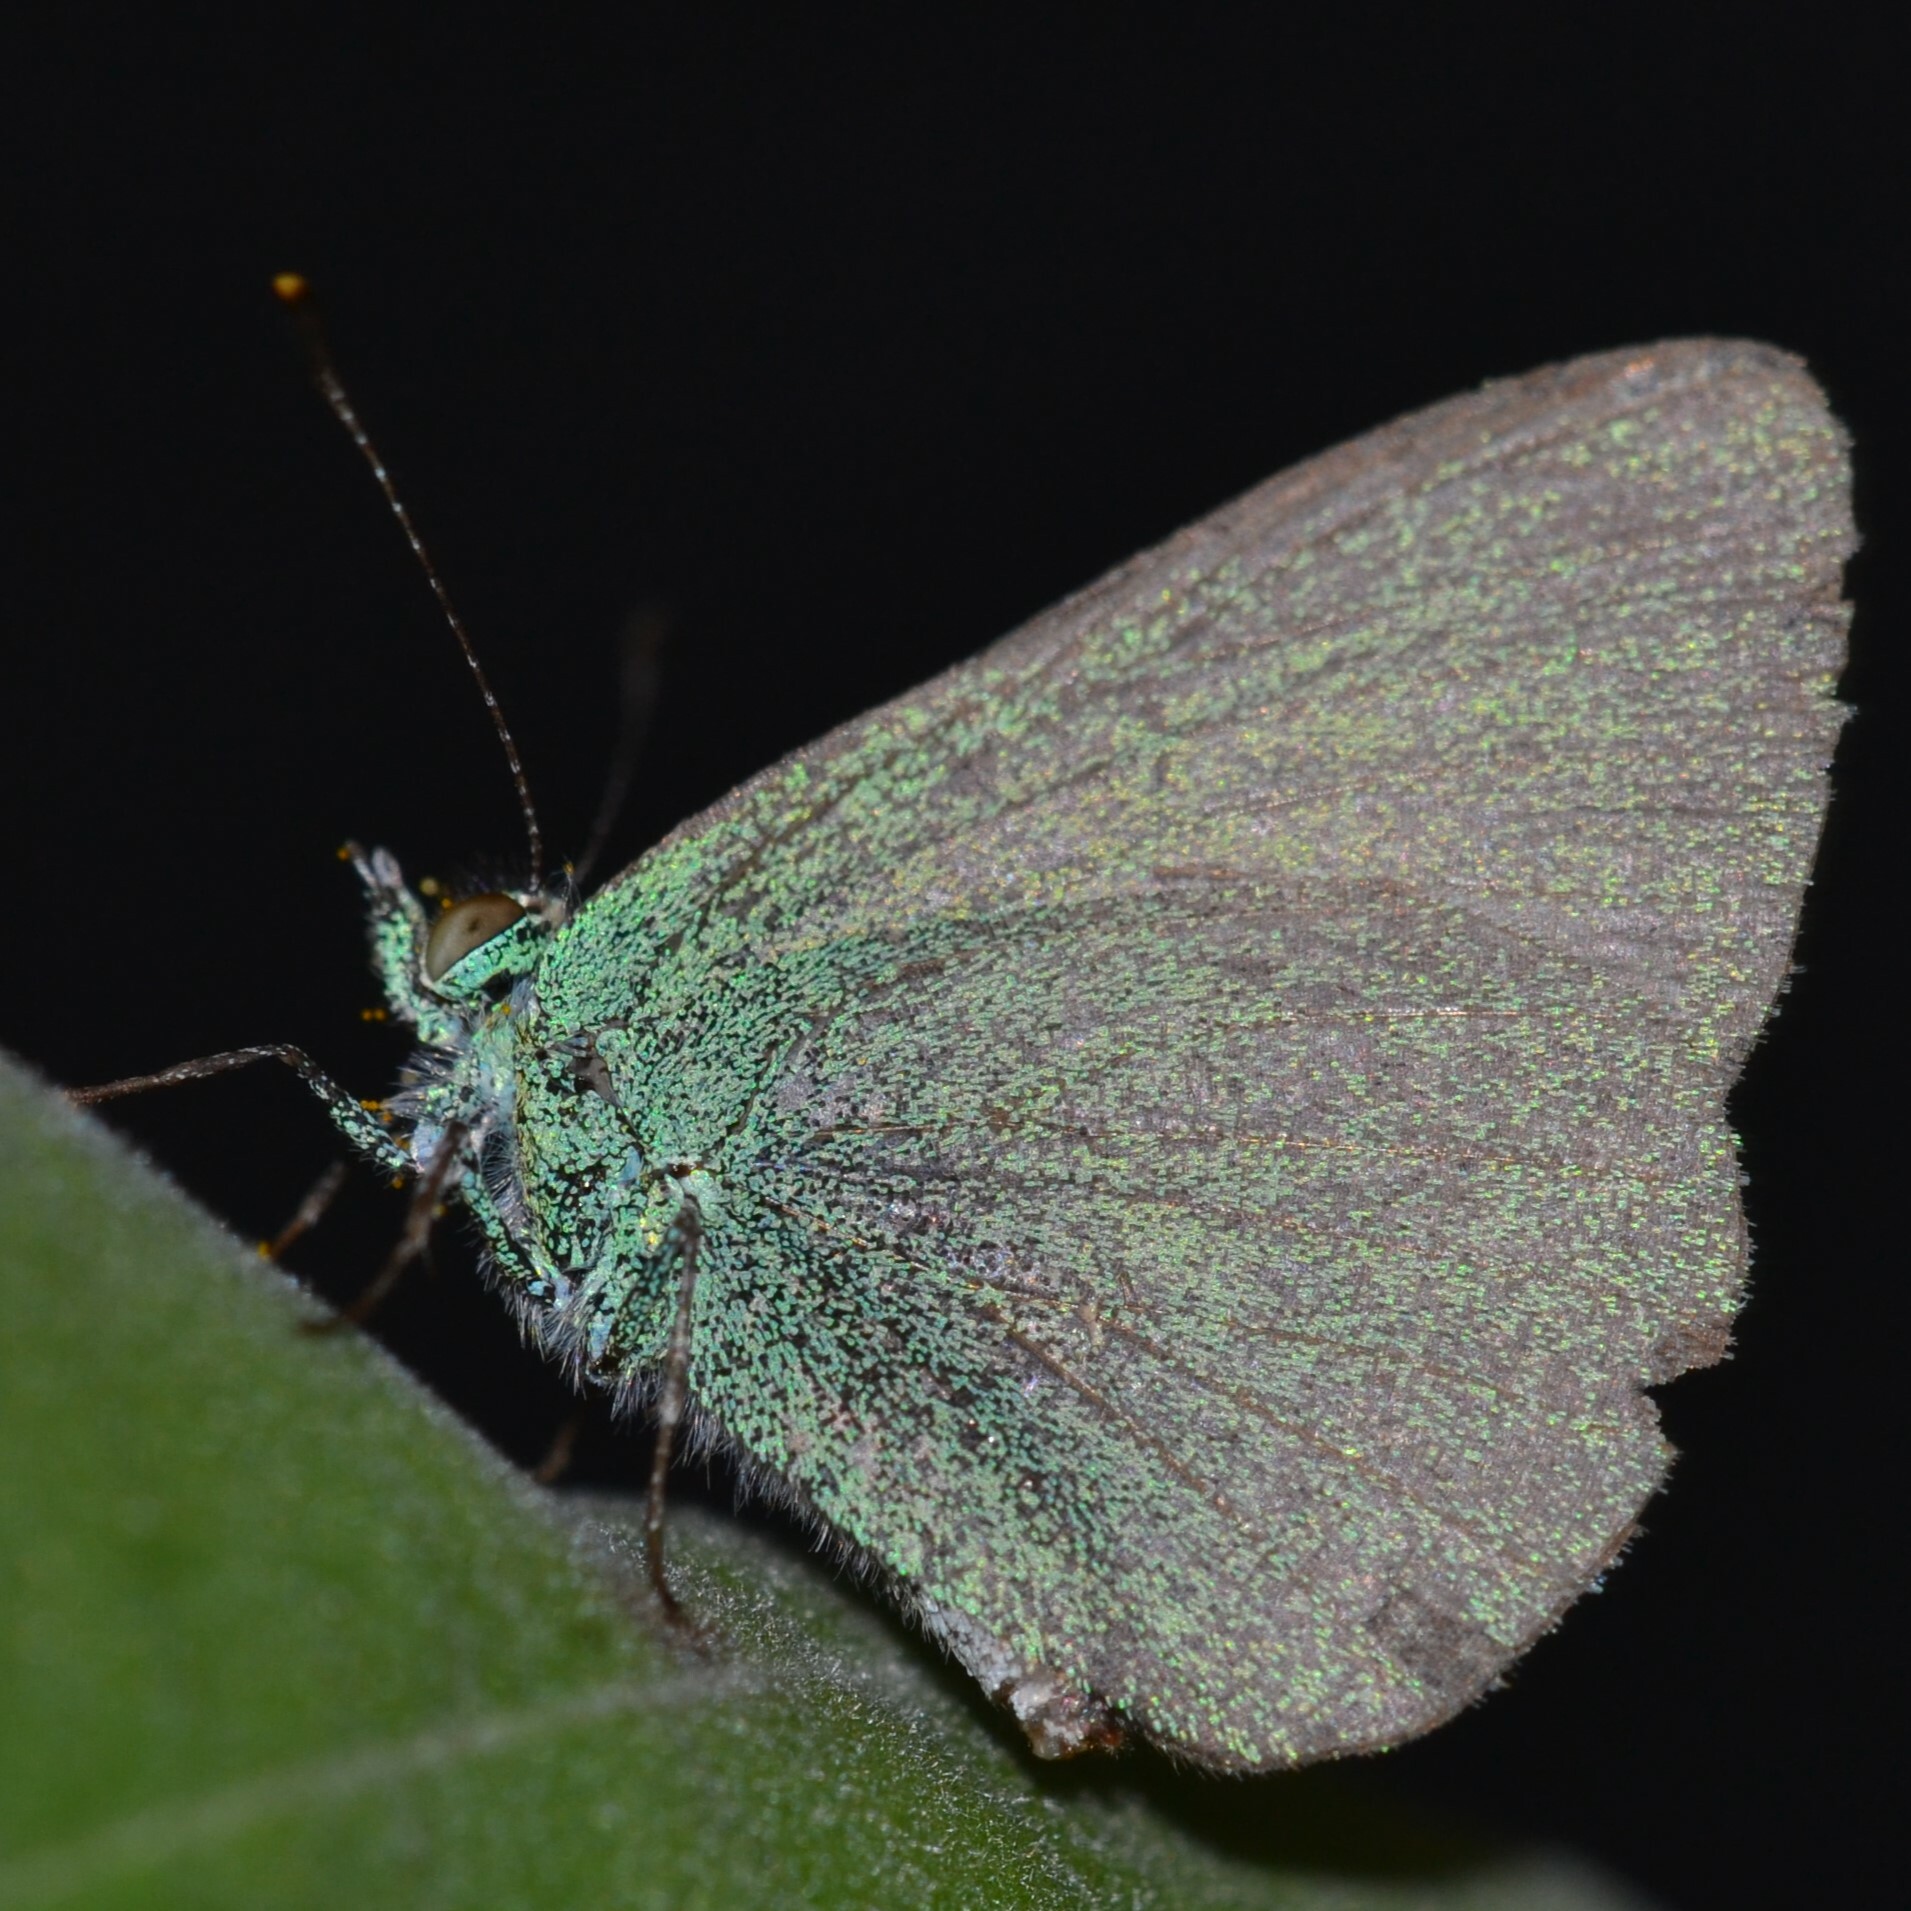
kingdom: Animalia
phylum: Arthropoda
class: Insecta
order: Lepidoptera
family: Lycaenidae
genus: Udara
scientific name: Udara blackburni
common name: Blackburn's blue
